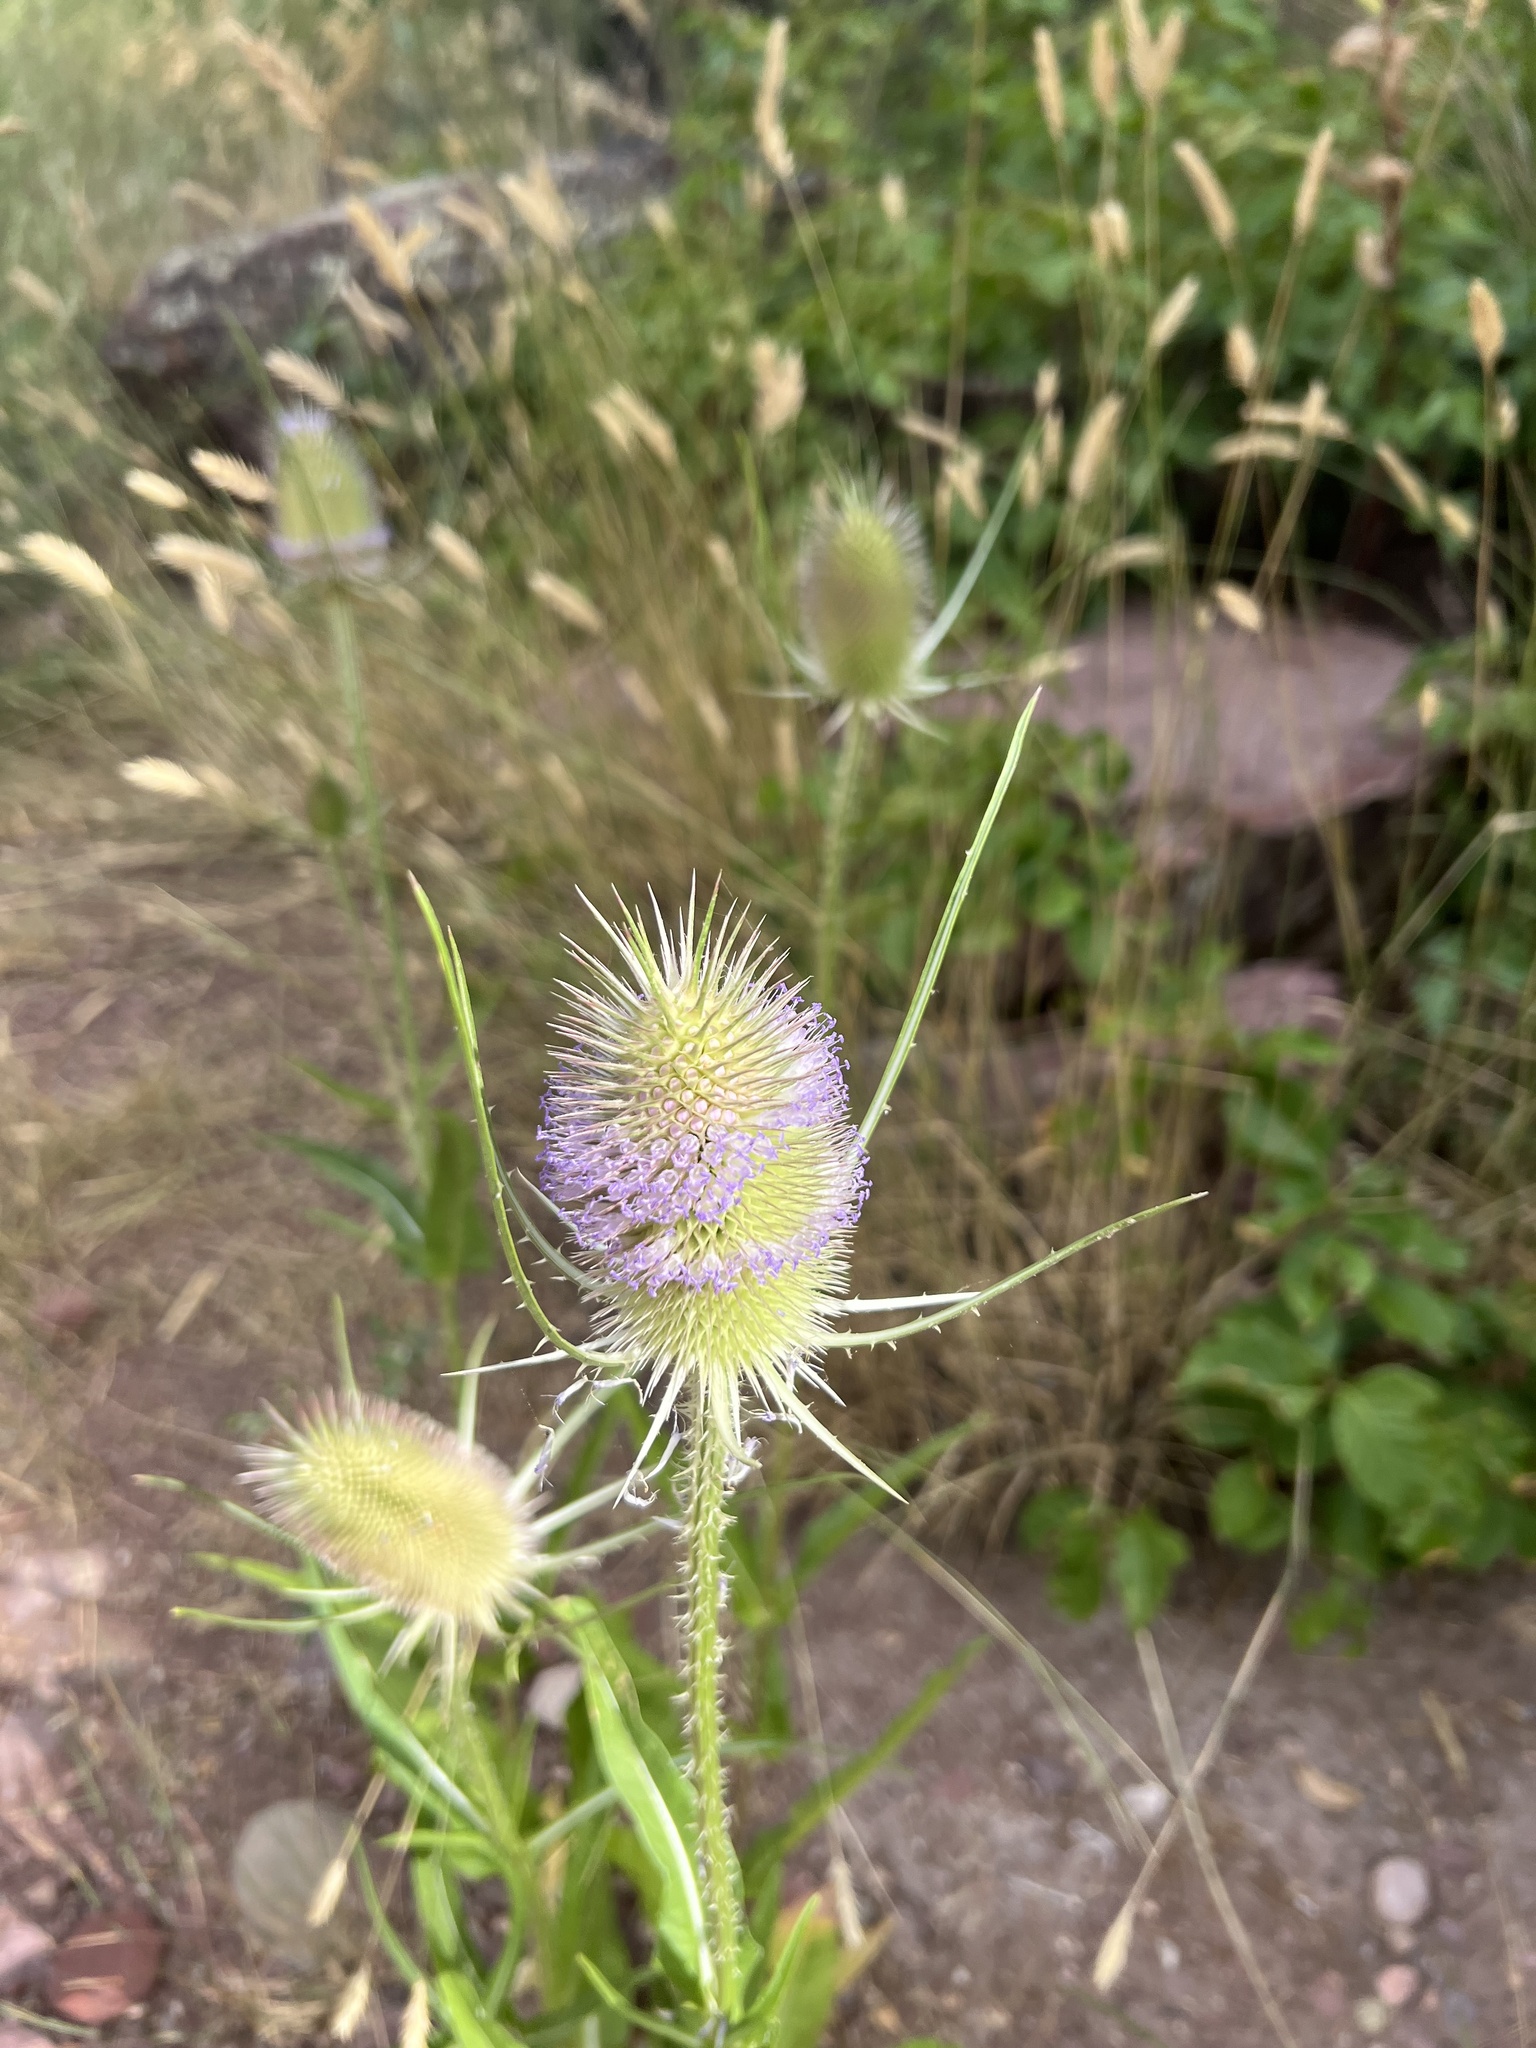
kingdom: Plantae
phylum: Tracheophyta
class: Magnoliopsida
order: Dipsacales
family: Caprifoliaceae
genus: Dipsacus
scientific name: Dipsacus fullonum
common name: Teasel
